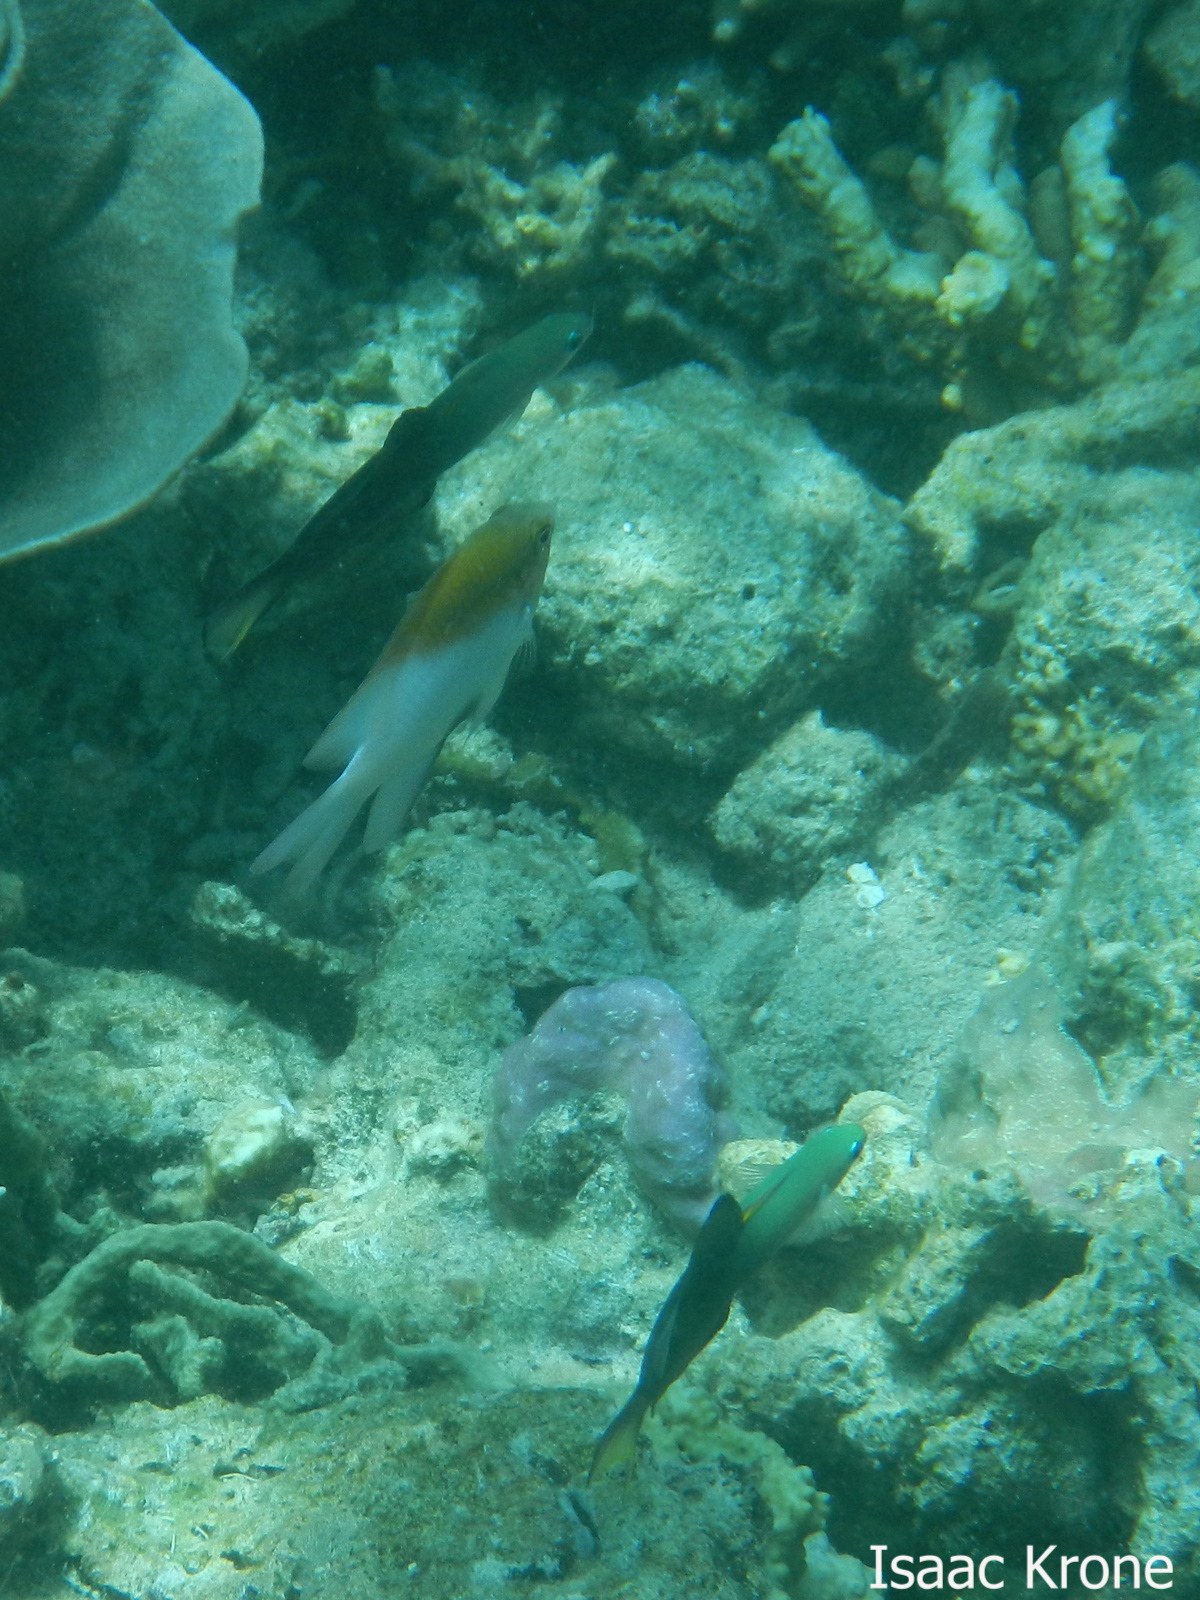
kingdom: Animalia
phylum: Chordata
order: Perciformes
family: Pomacentridae
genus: Dischistodus
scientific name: Dischistodus melanotus
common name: Black-vent damsel
